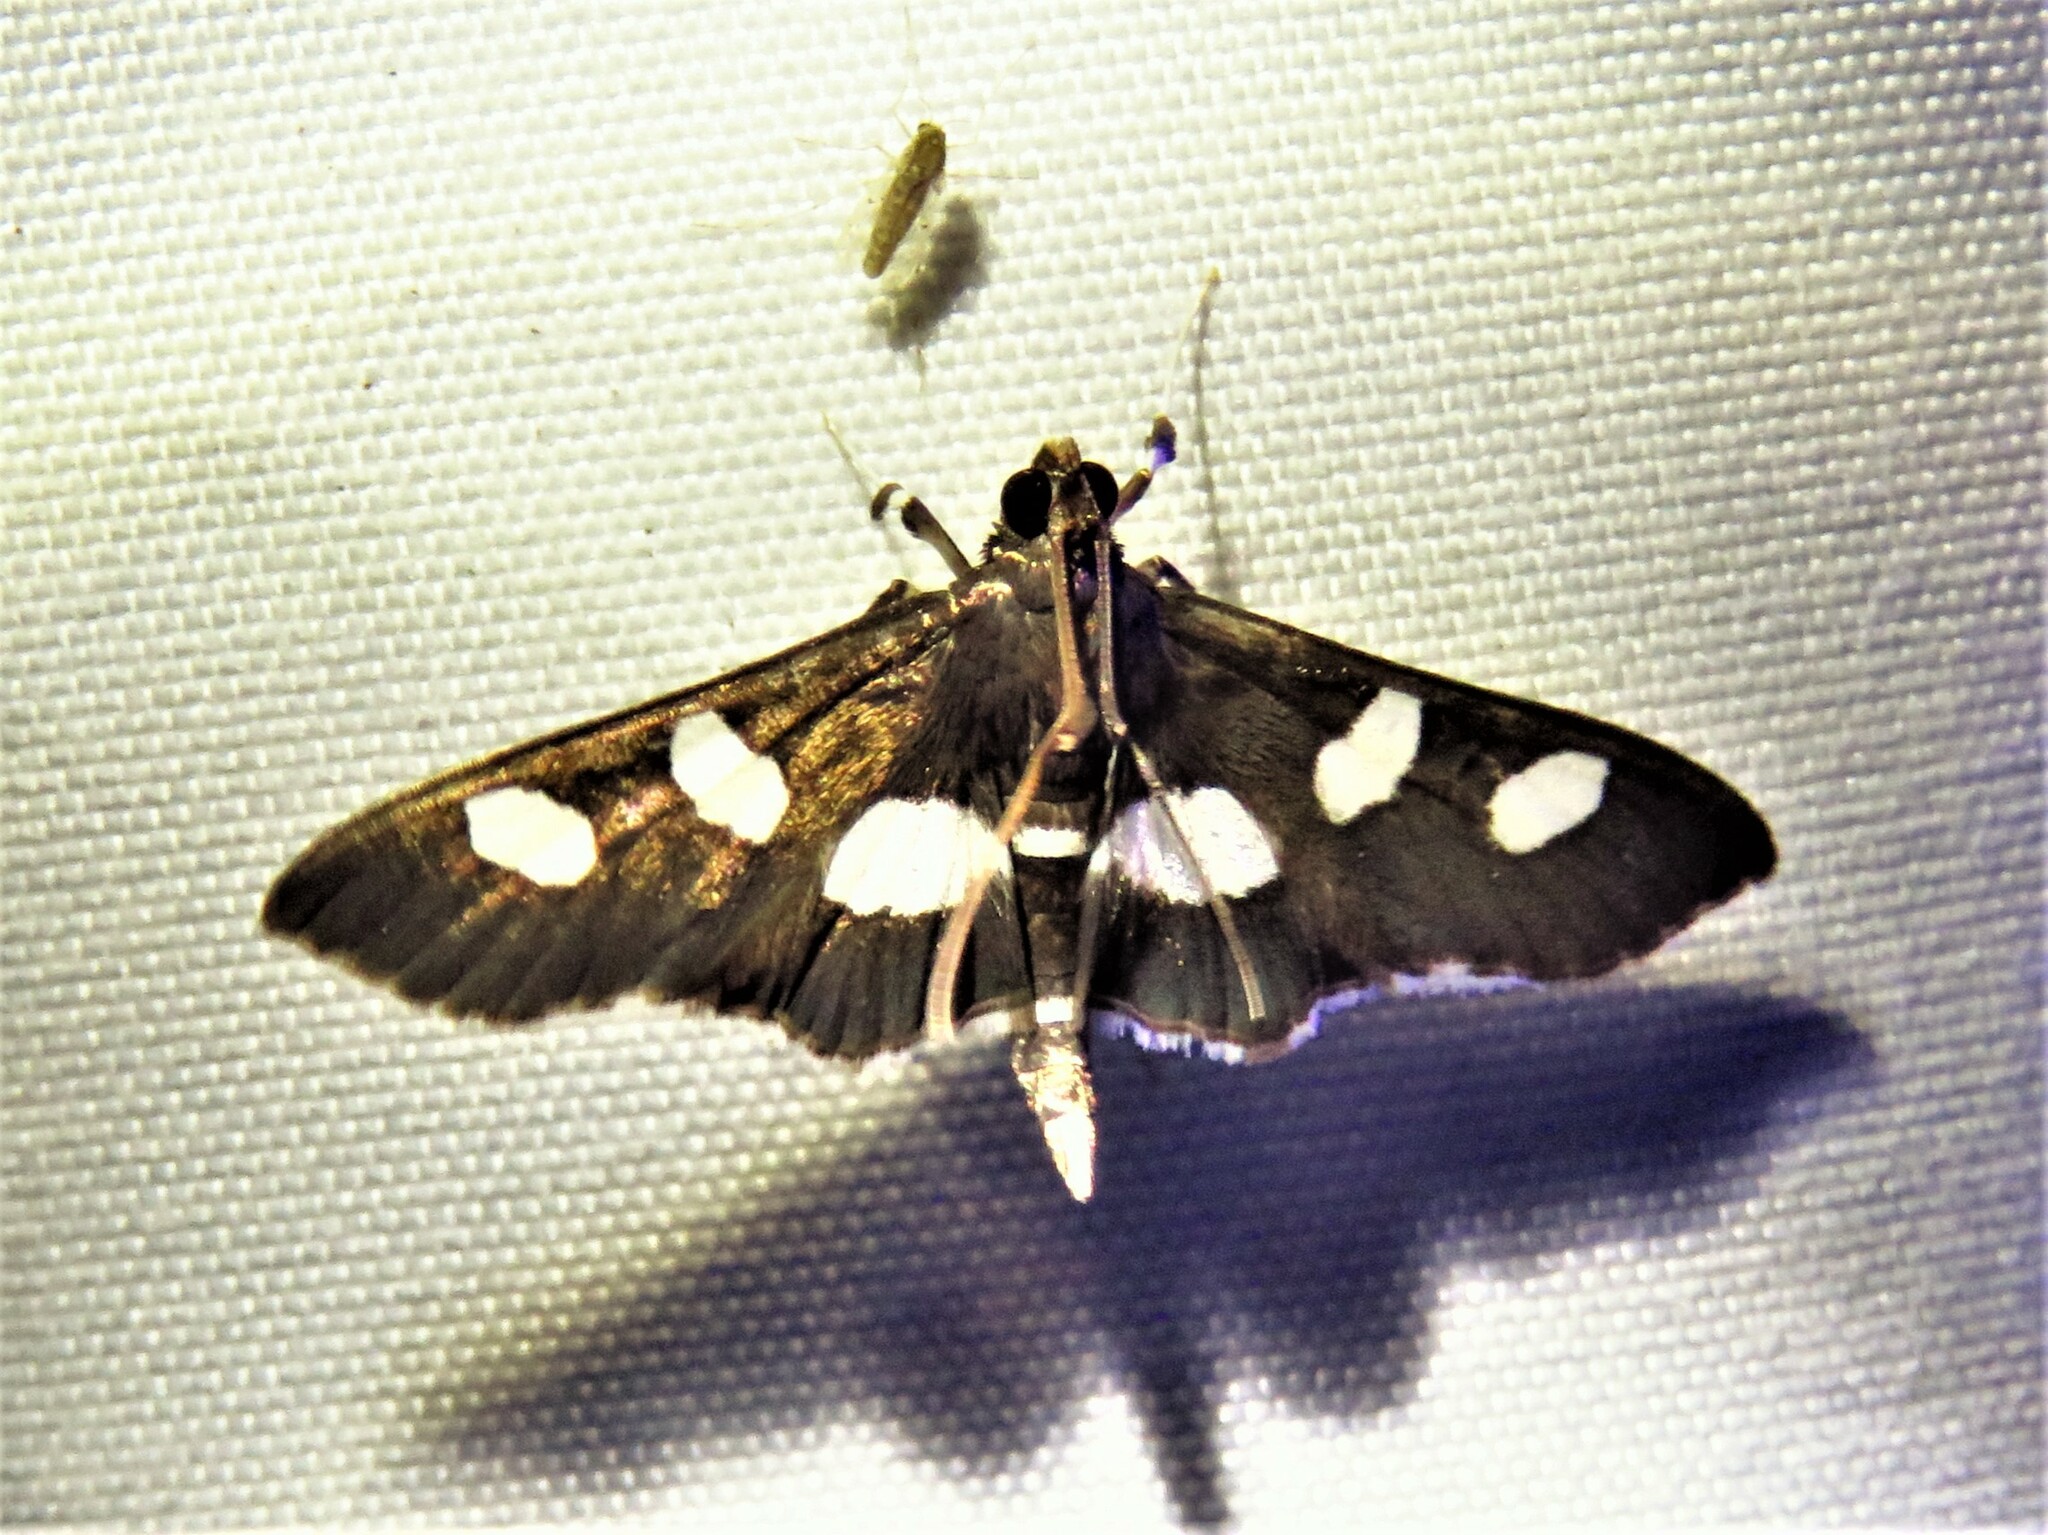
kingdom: Animalia
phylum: Arthropoda
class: Insecta
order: Lepidoptera
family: Crambidae
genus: Desmia
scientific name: Desmia
